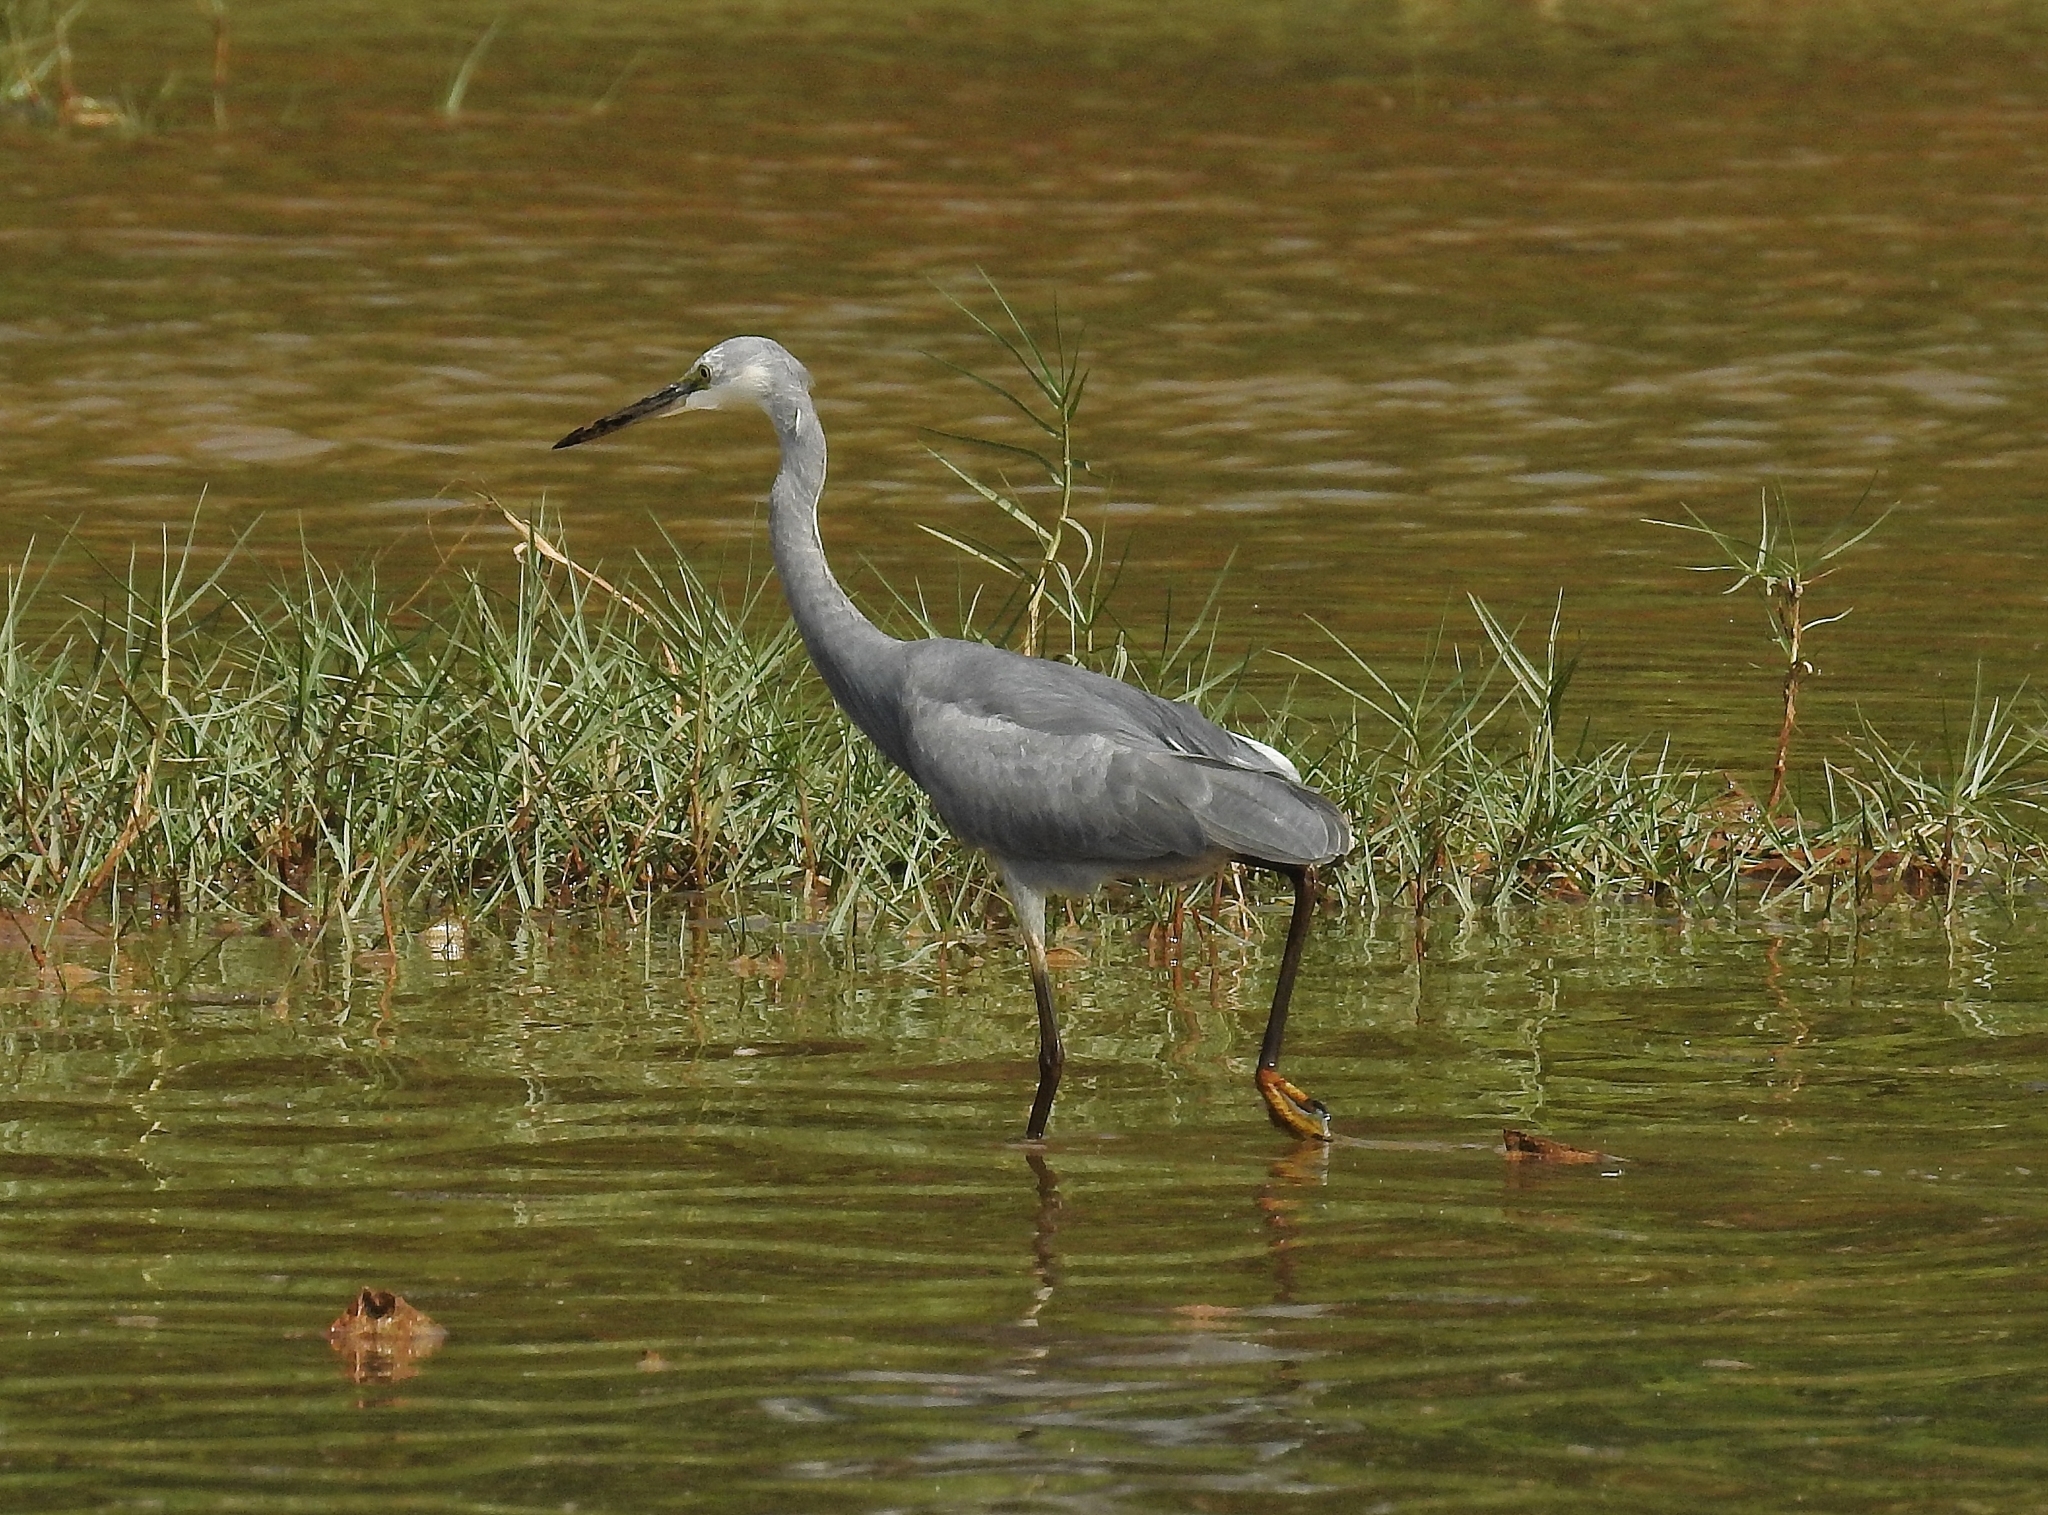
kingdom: Animalia
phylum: Chordata
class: Aves
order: Pelecaniformes
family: Ardeidae
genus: Egretta
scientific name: Egretta garzetta
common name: Little egret
